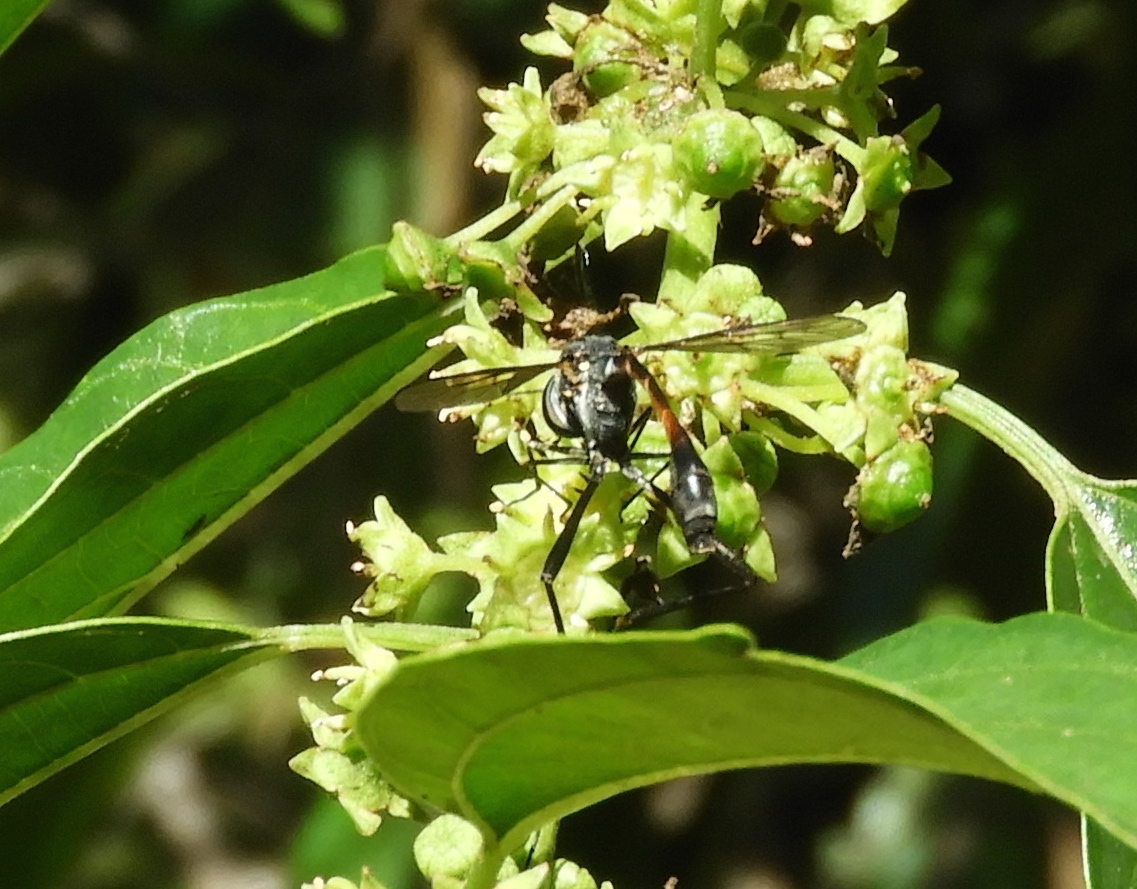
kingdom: Animalia
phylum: Arthropoda
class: Insecta
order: Diptera
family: Bombyliidae
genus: Systropus
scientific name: Systropus
